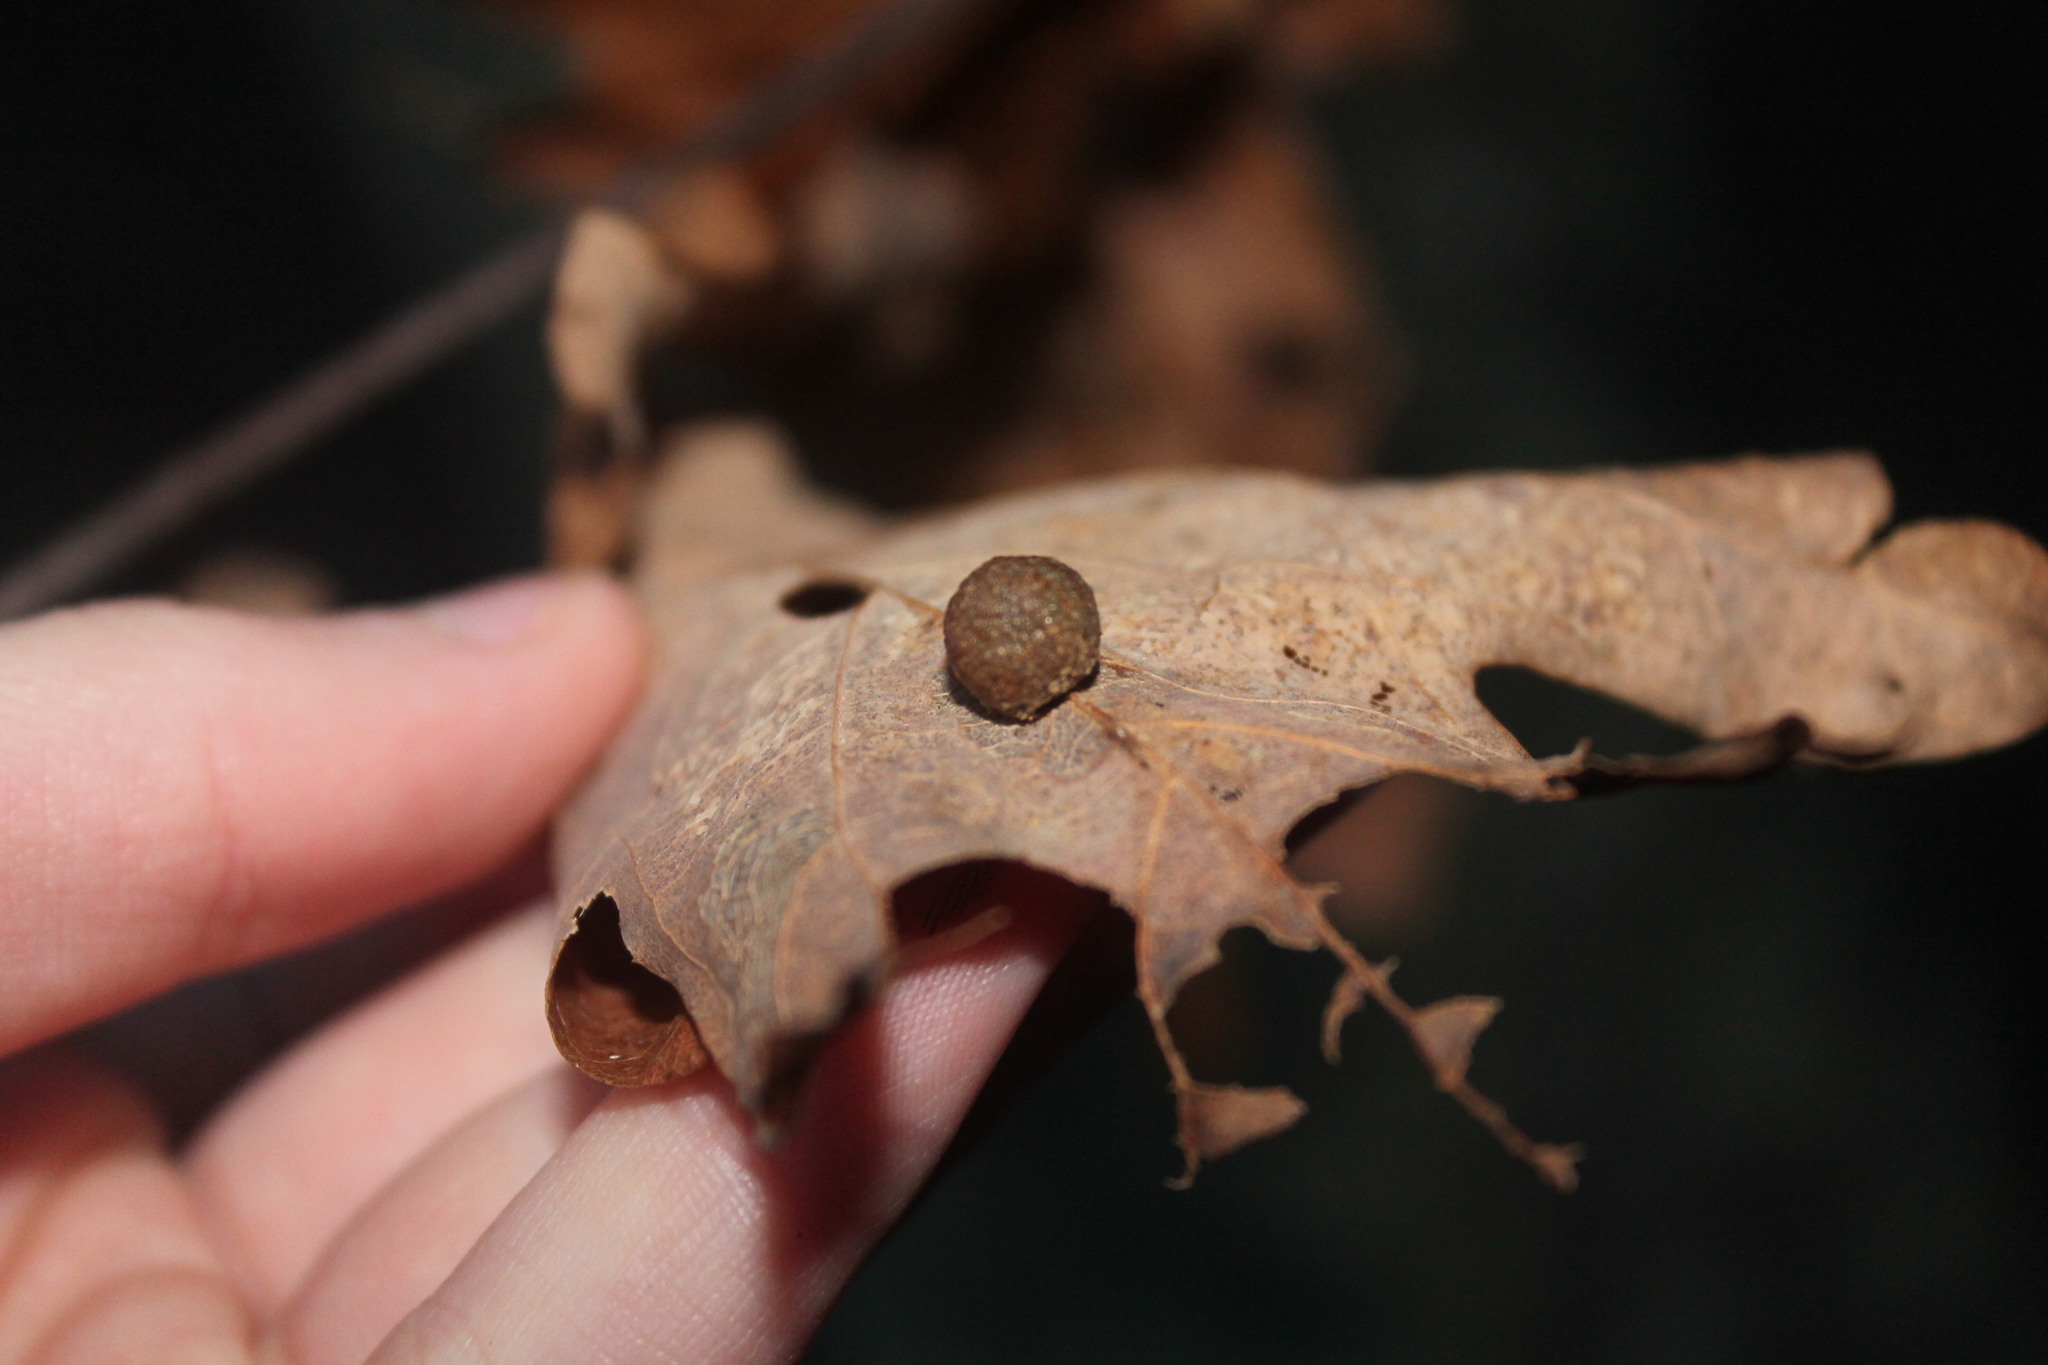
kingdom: Animalia
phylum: Arthropoda
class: Insecta
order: Hymenoptera
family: Cynipidae
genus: Acraspis
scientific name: Acraspis
